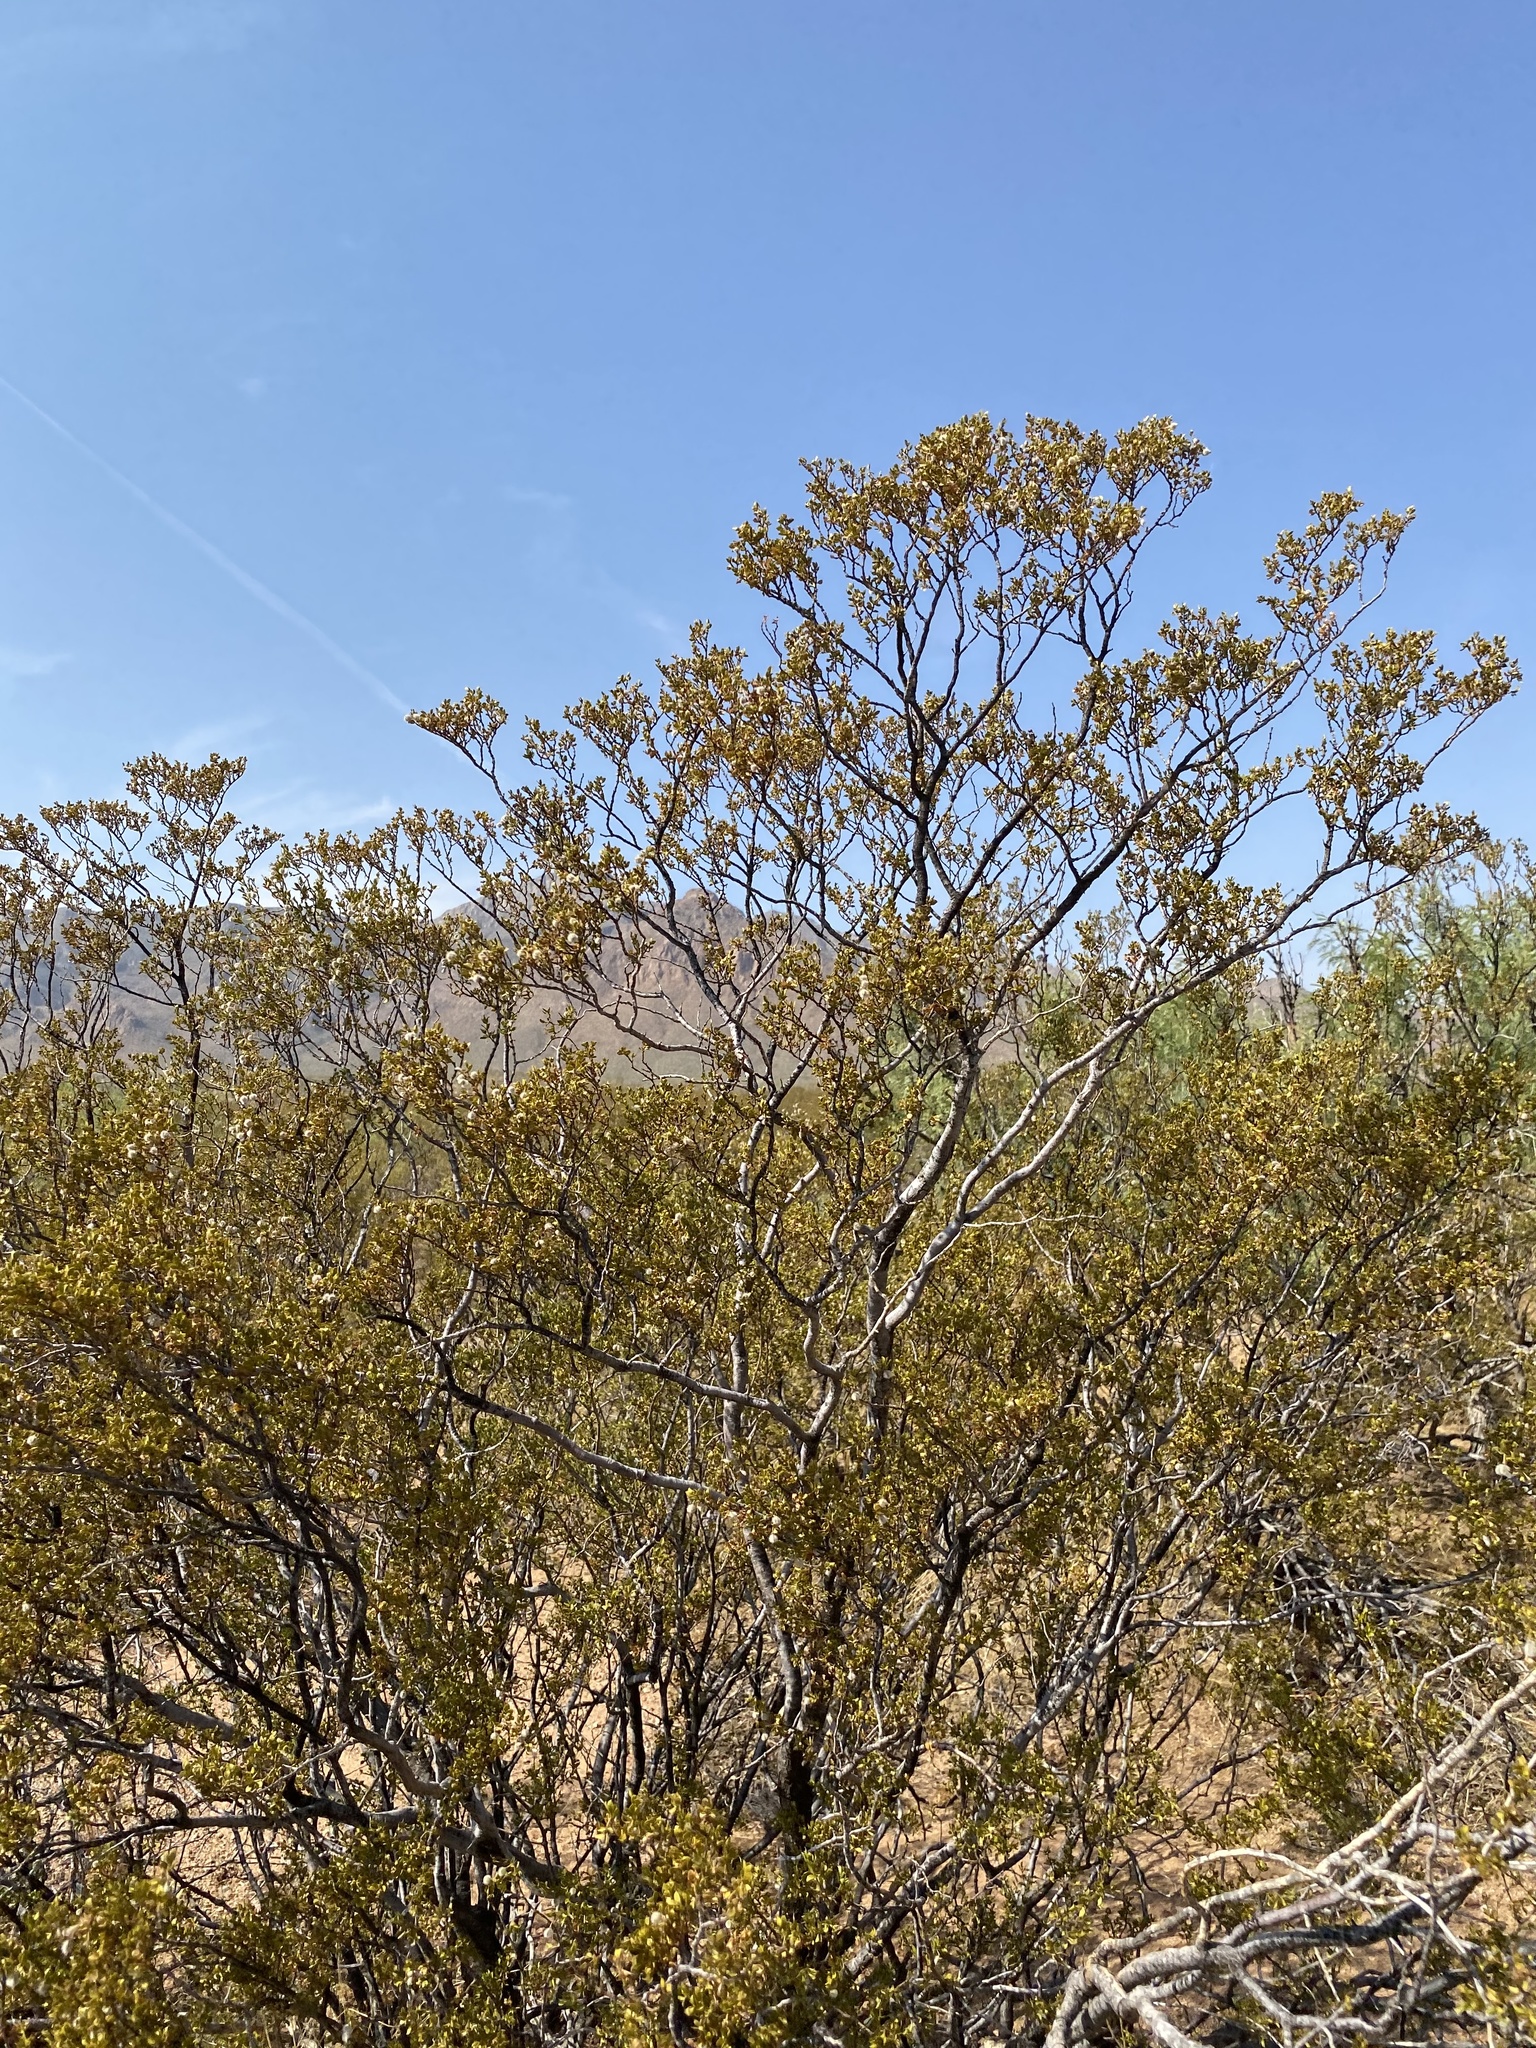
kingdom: Plantae
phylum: Tracheophyta
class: Magnoliopsida
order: Zygophyllales
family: Zygophyllaceae
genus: Larrea
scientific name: Larrea tridentata
